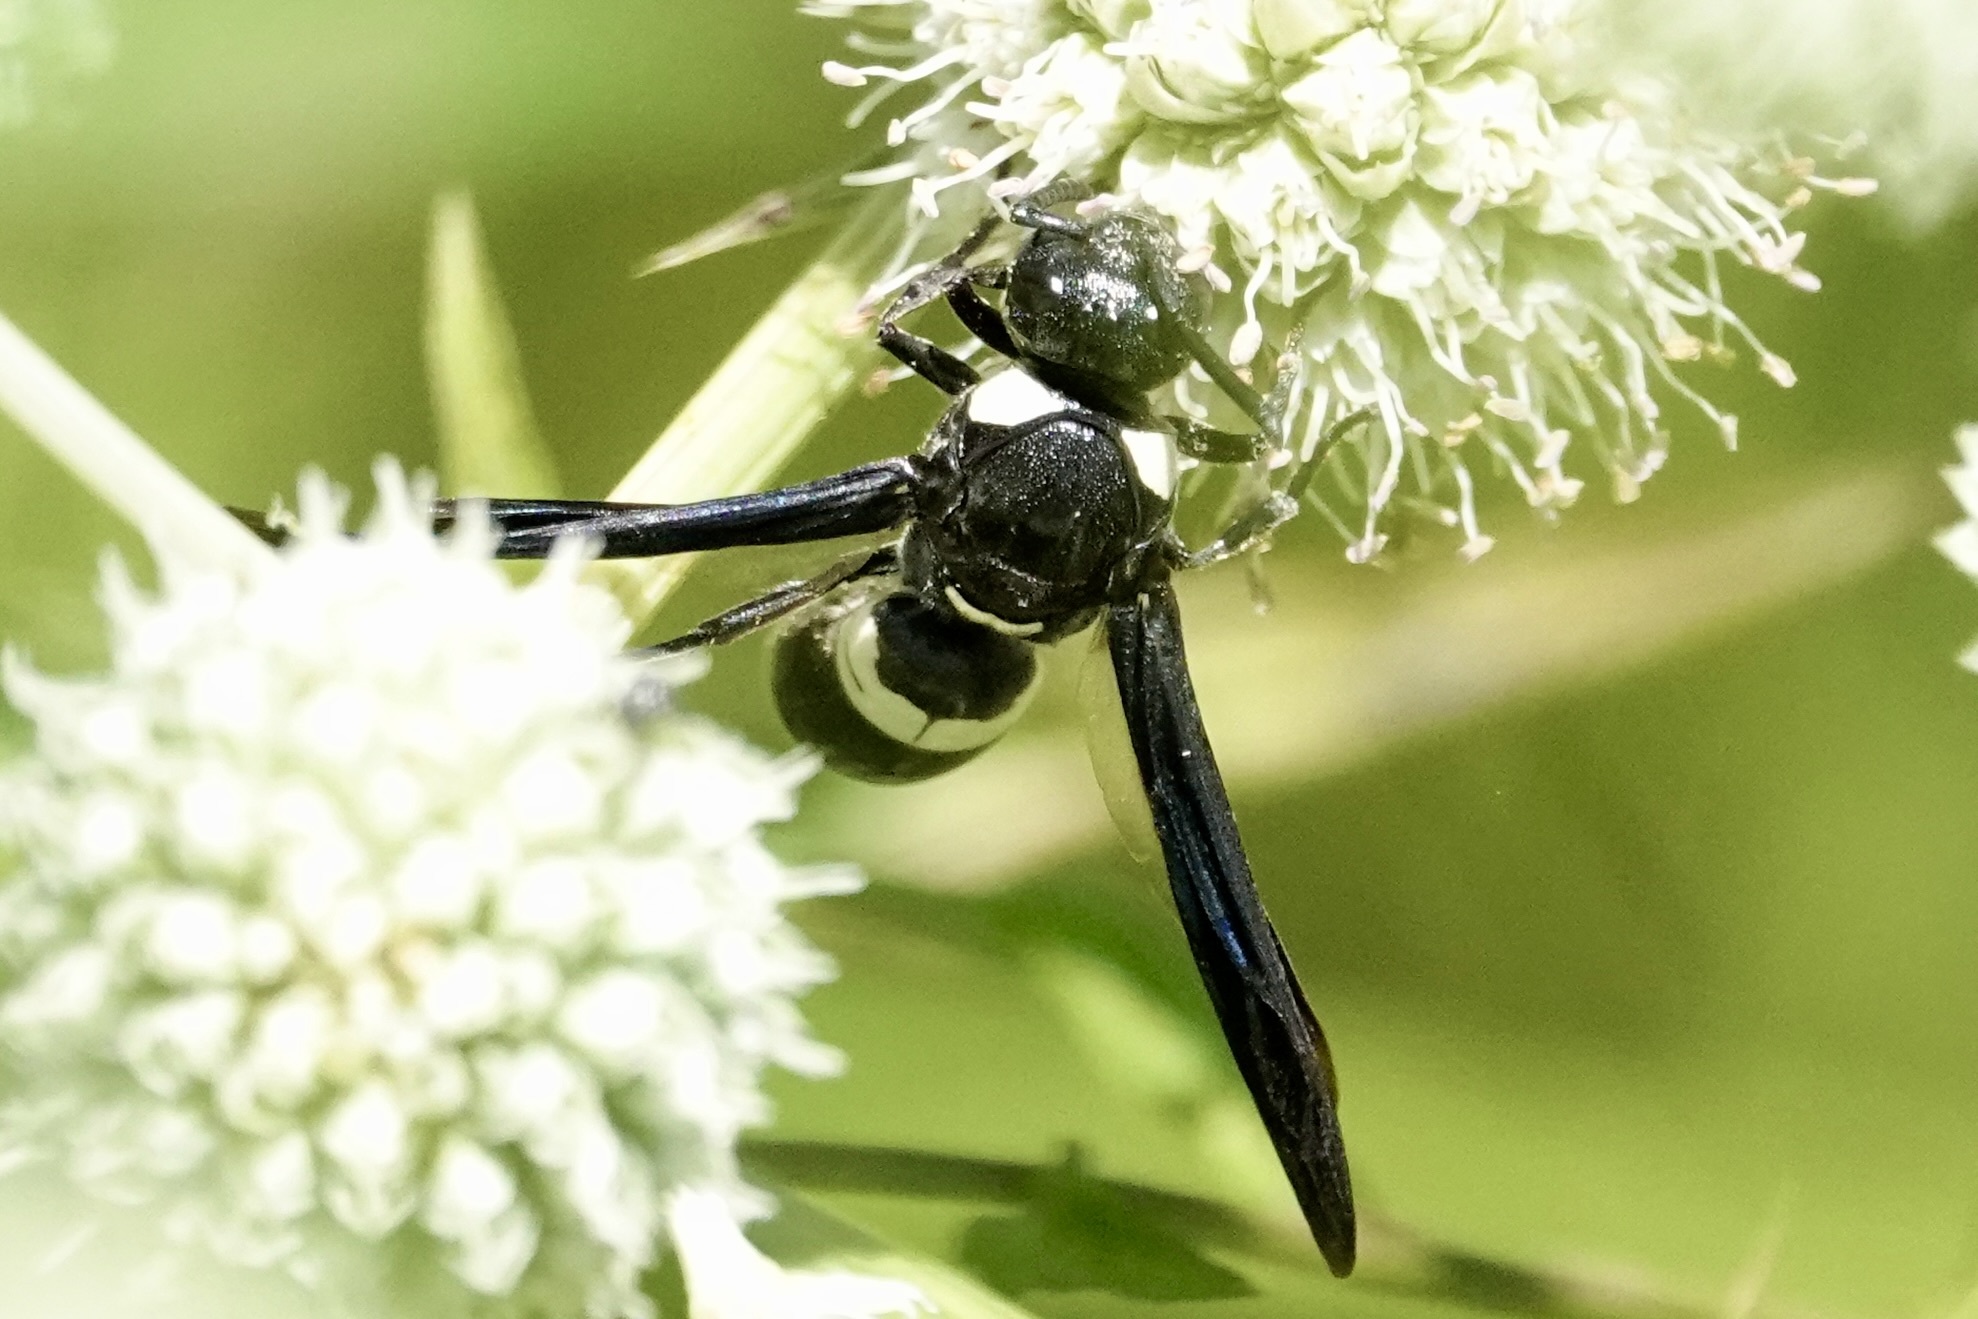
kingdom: Animalia
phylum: Arthropoda
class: Insecta
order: Hymenoptera
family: Eumenidae
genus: Monobia
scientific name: Monobia quadridens
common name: Four-toothed mason wasp
